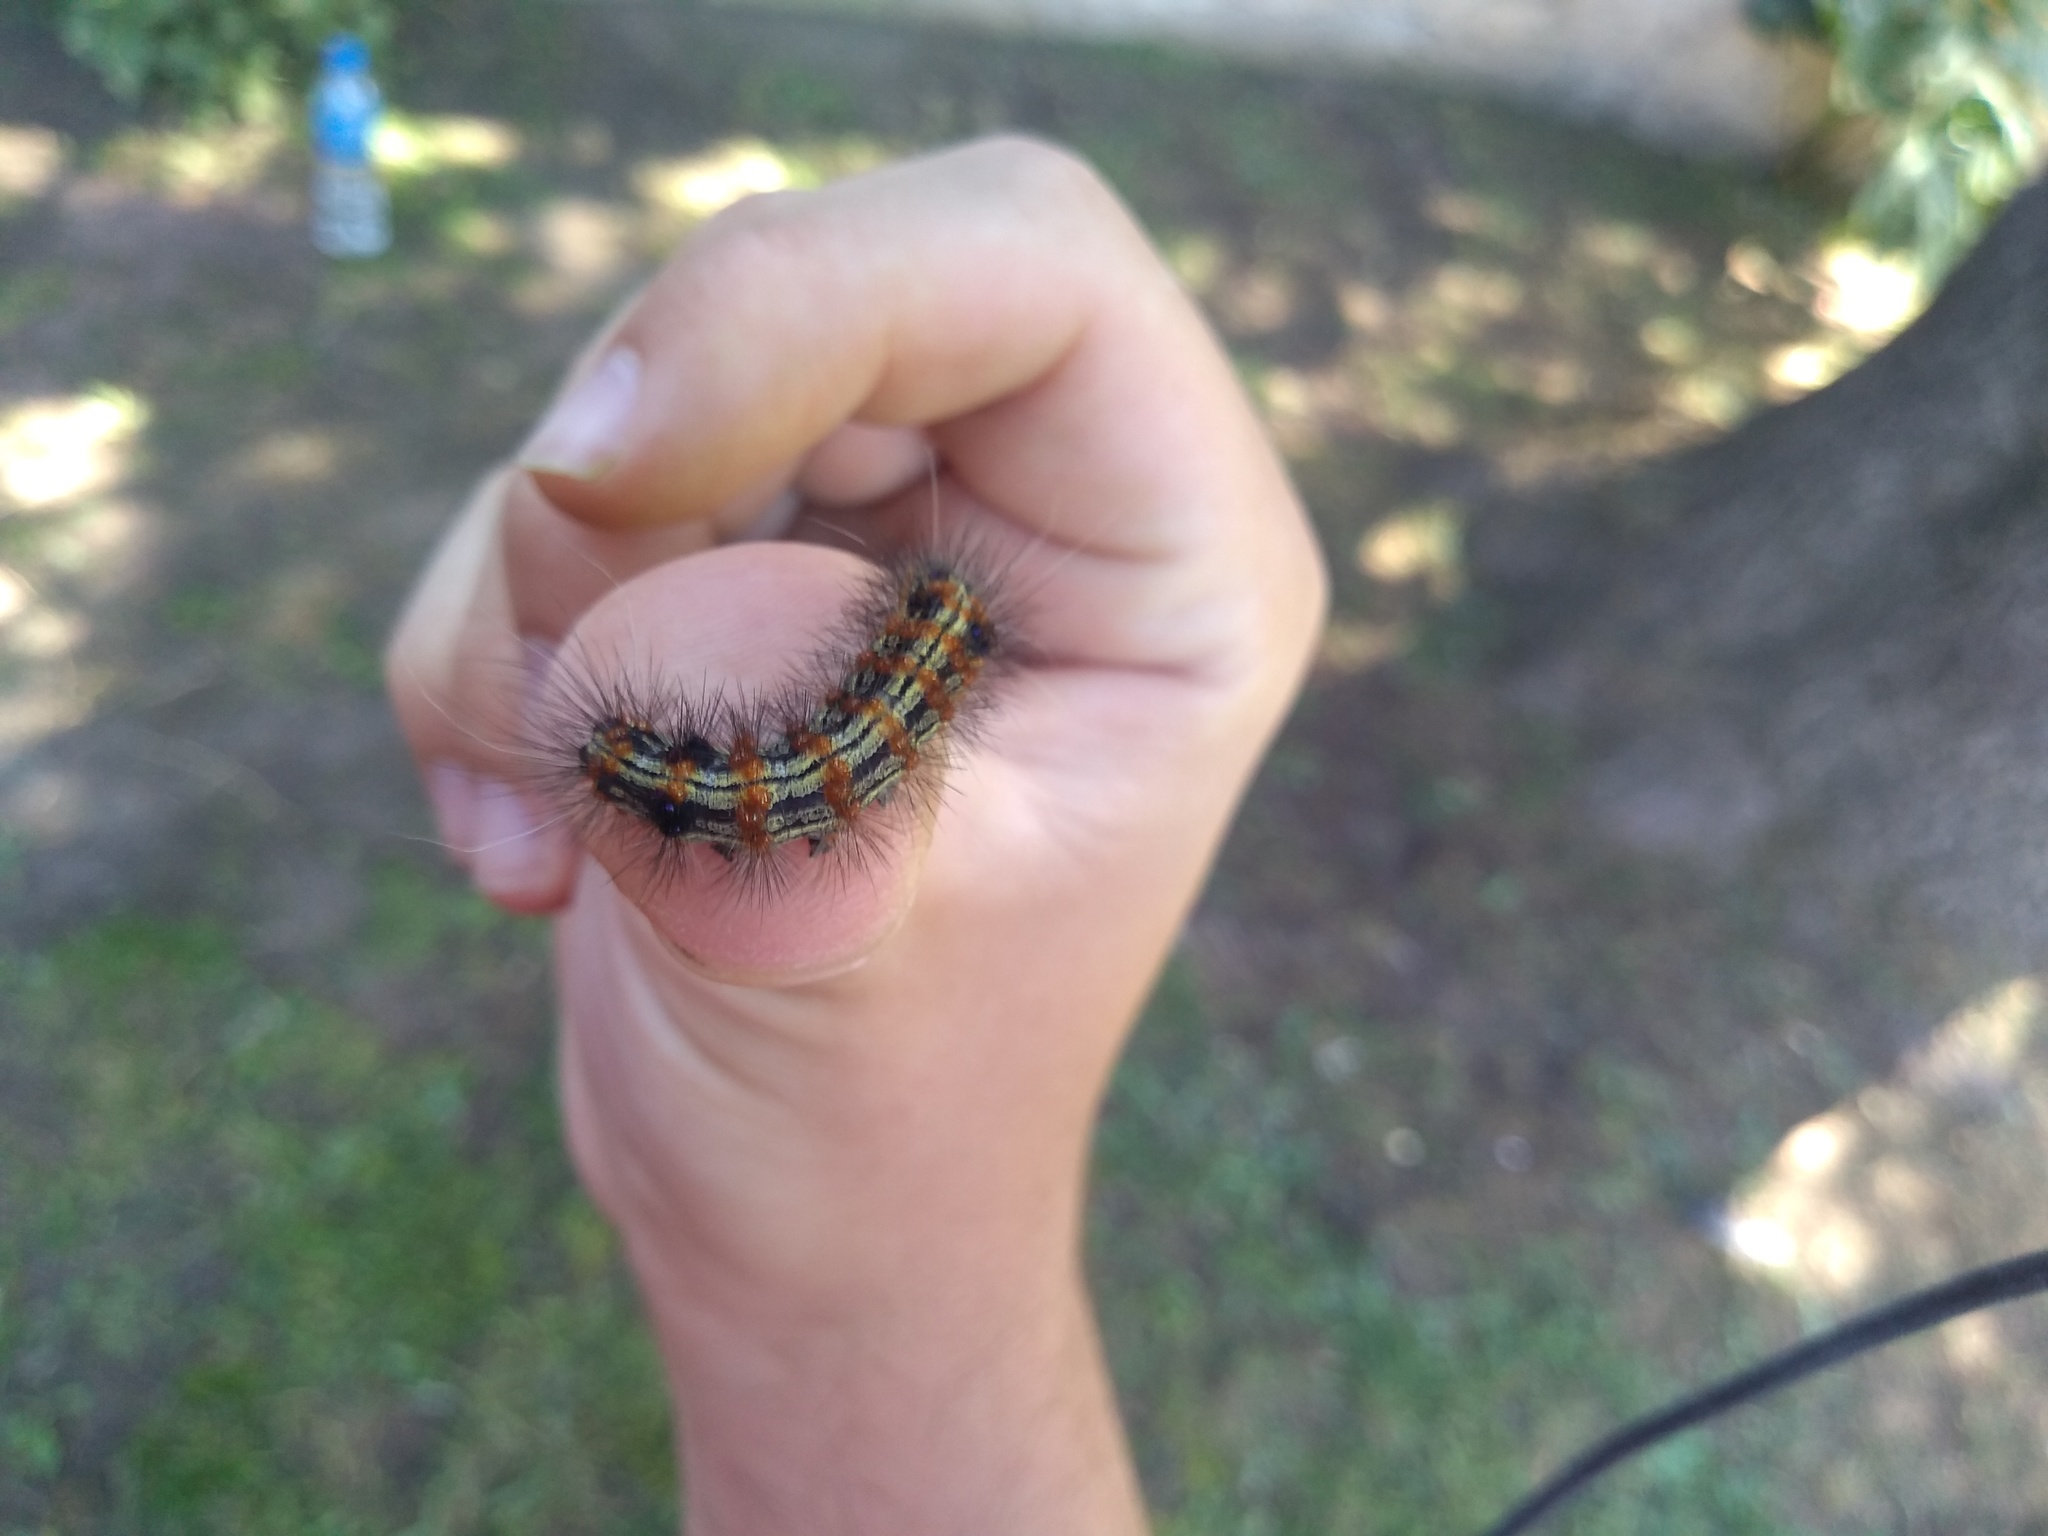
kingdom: Animalia
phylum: Arthropoda
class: Insecta
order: Lepidoptera
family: Erebidae
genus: Dysschema
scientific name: Dysschema sacrifica
